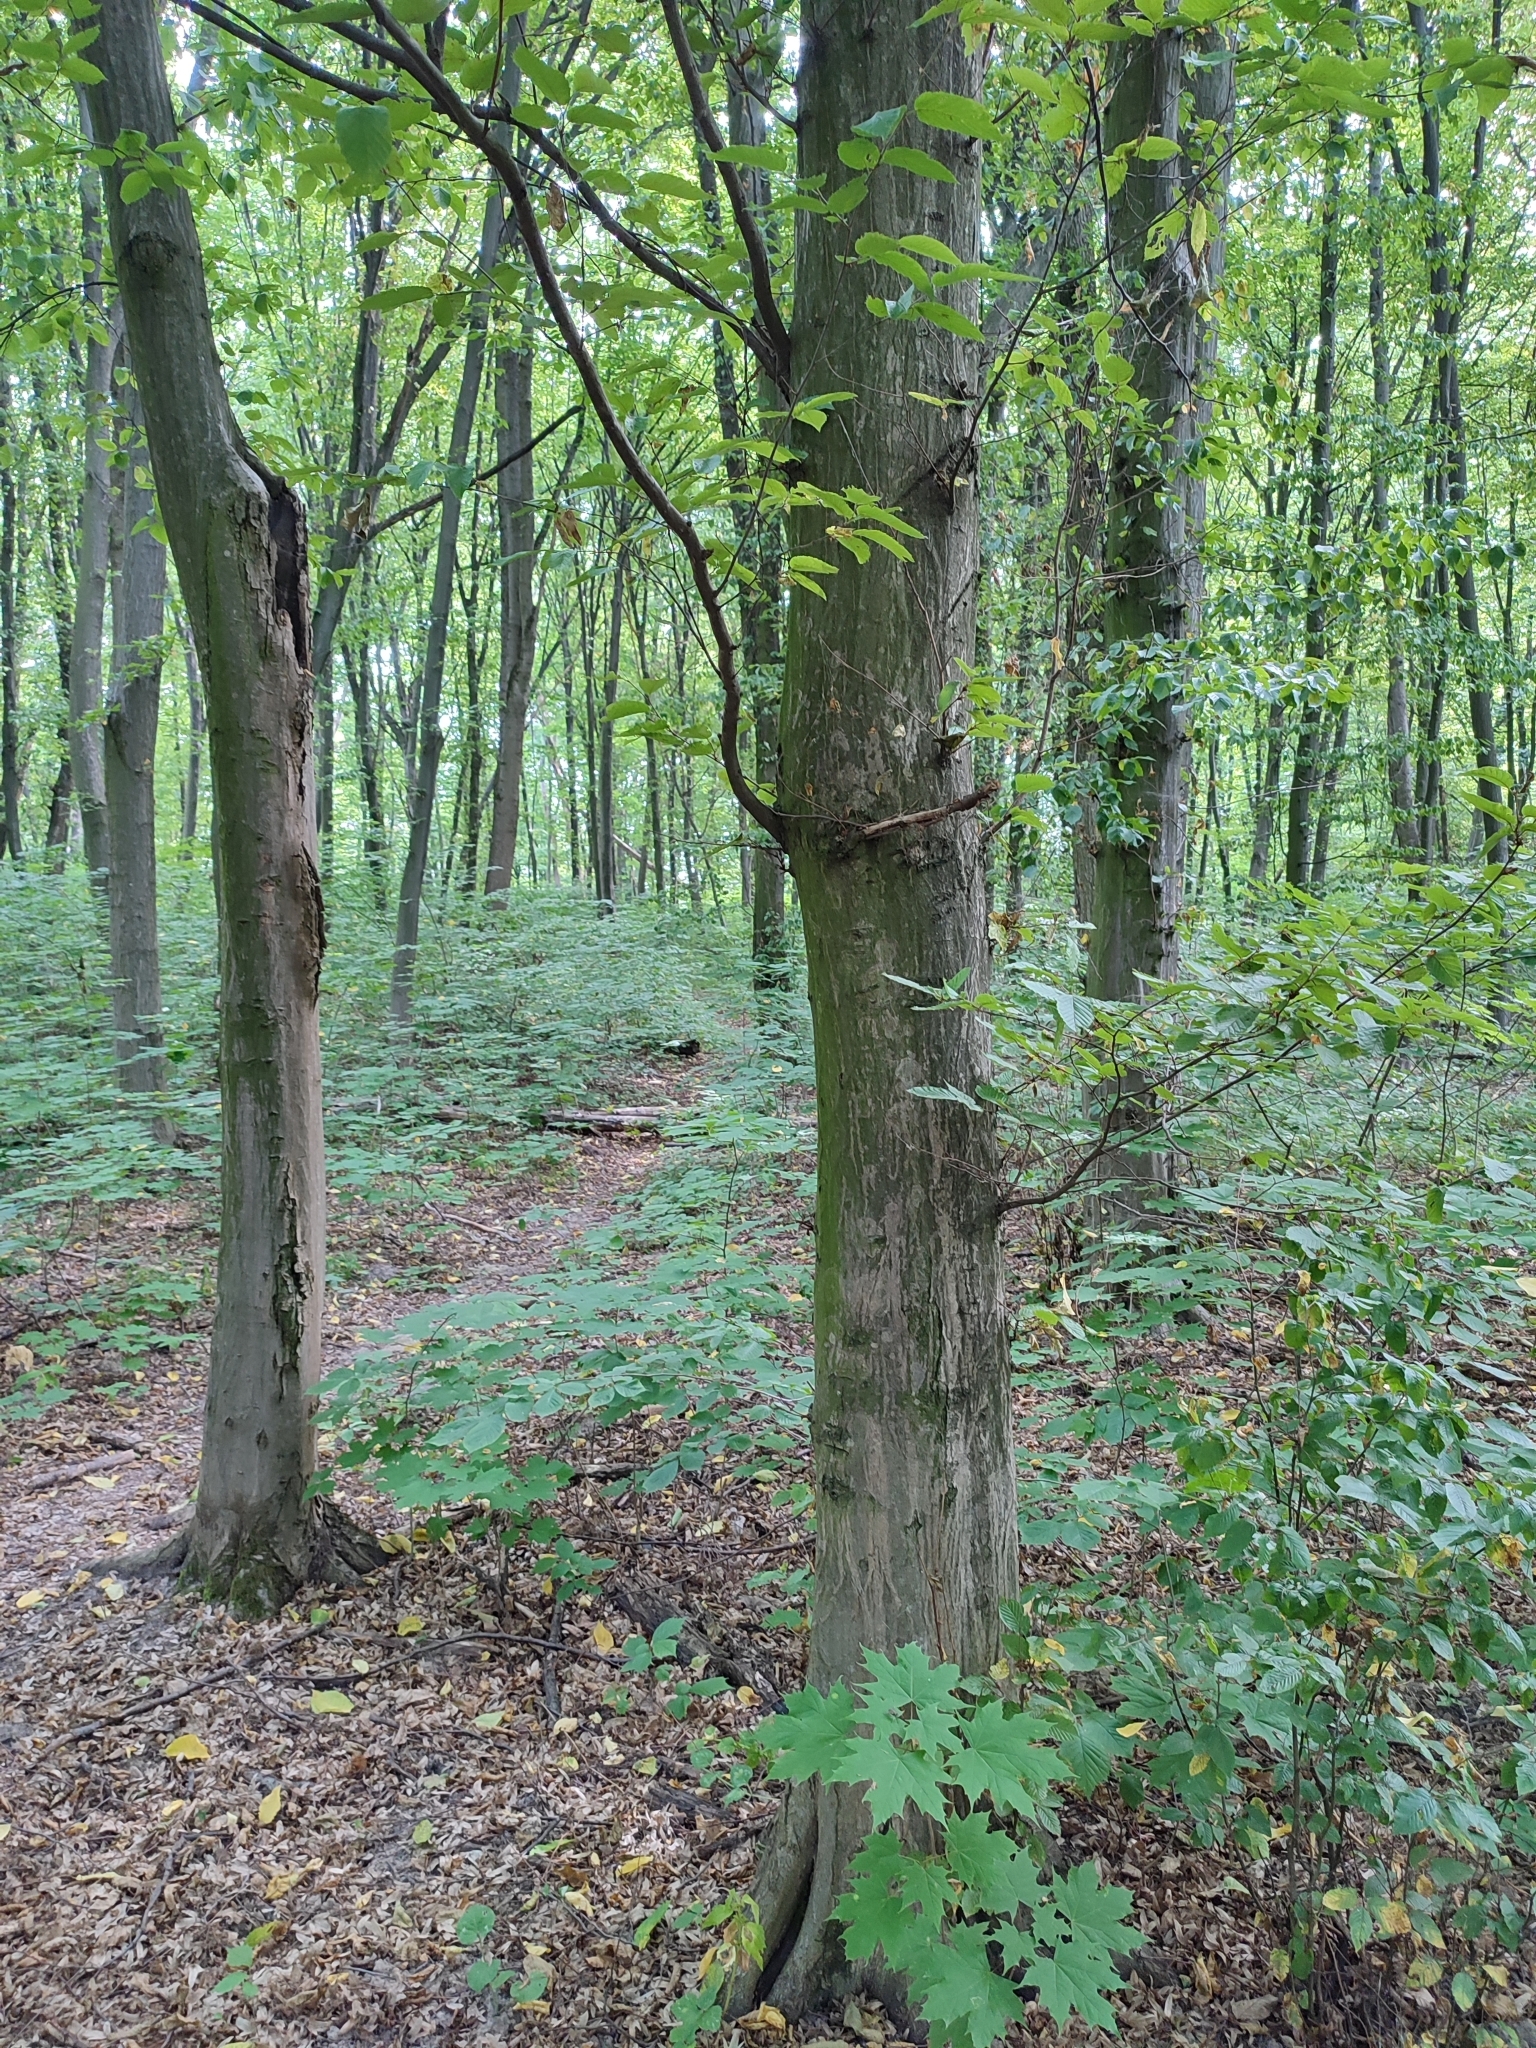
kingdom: Plantae
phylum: Tracheophyta
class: Magnoliopsida
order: Fagales
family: Betulaceae
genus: Carpinus
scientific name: Carpinus betulus
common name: Hornbeam
